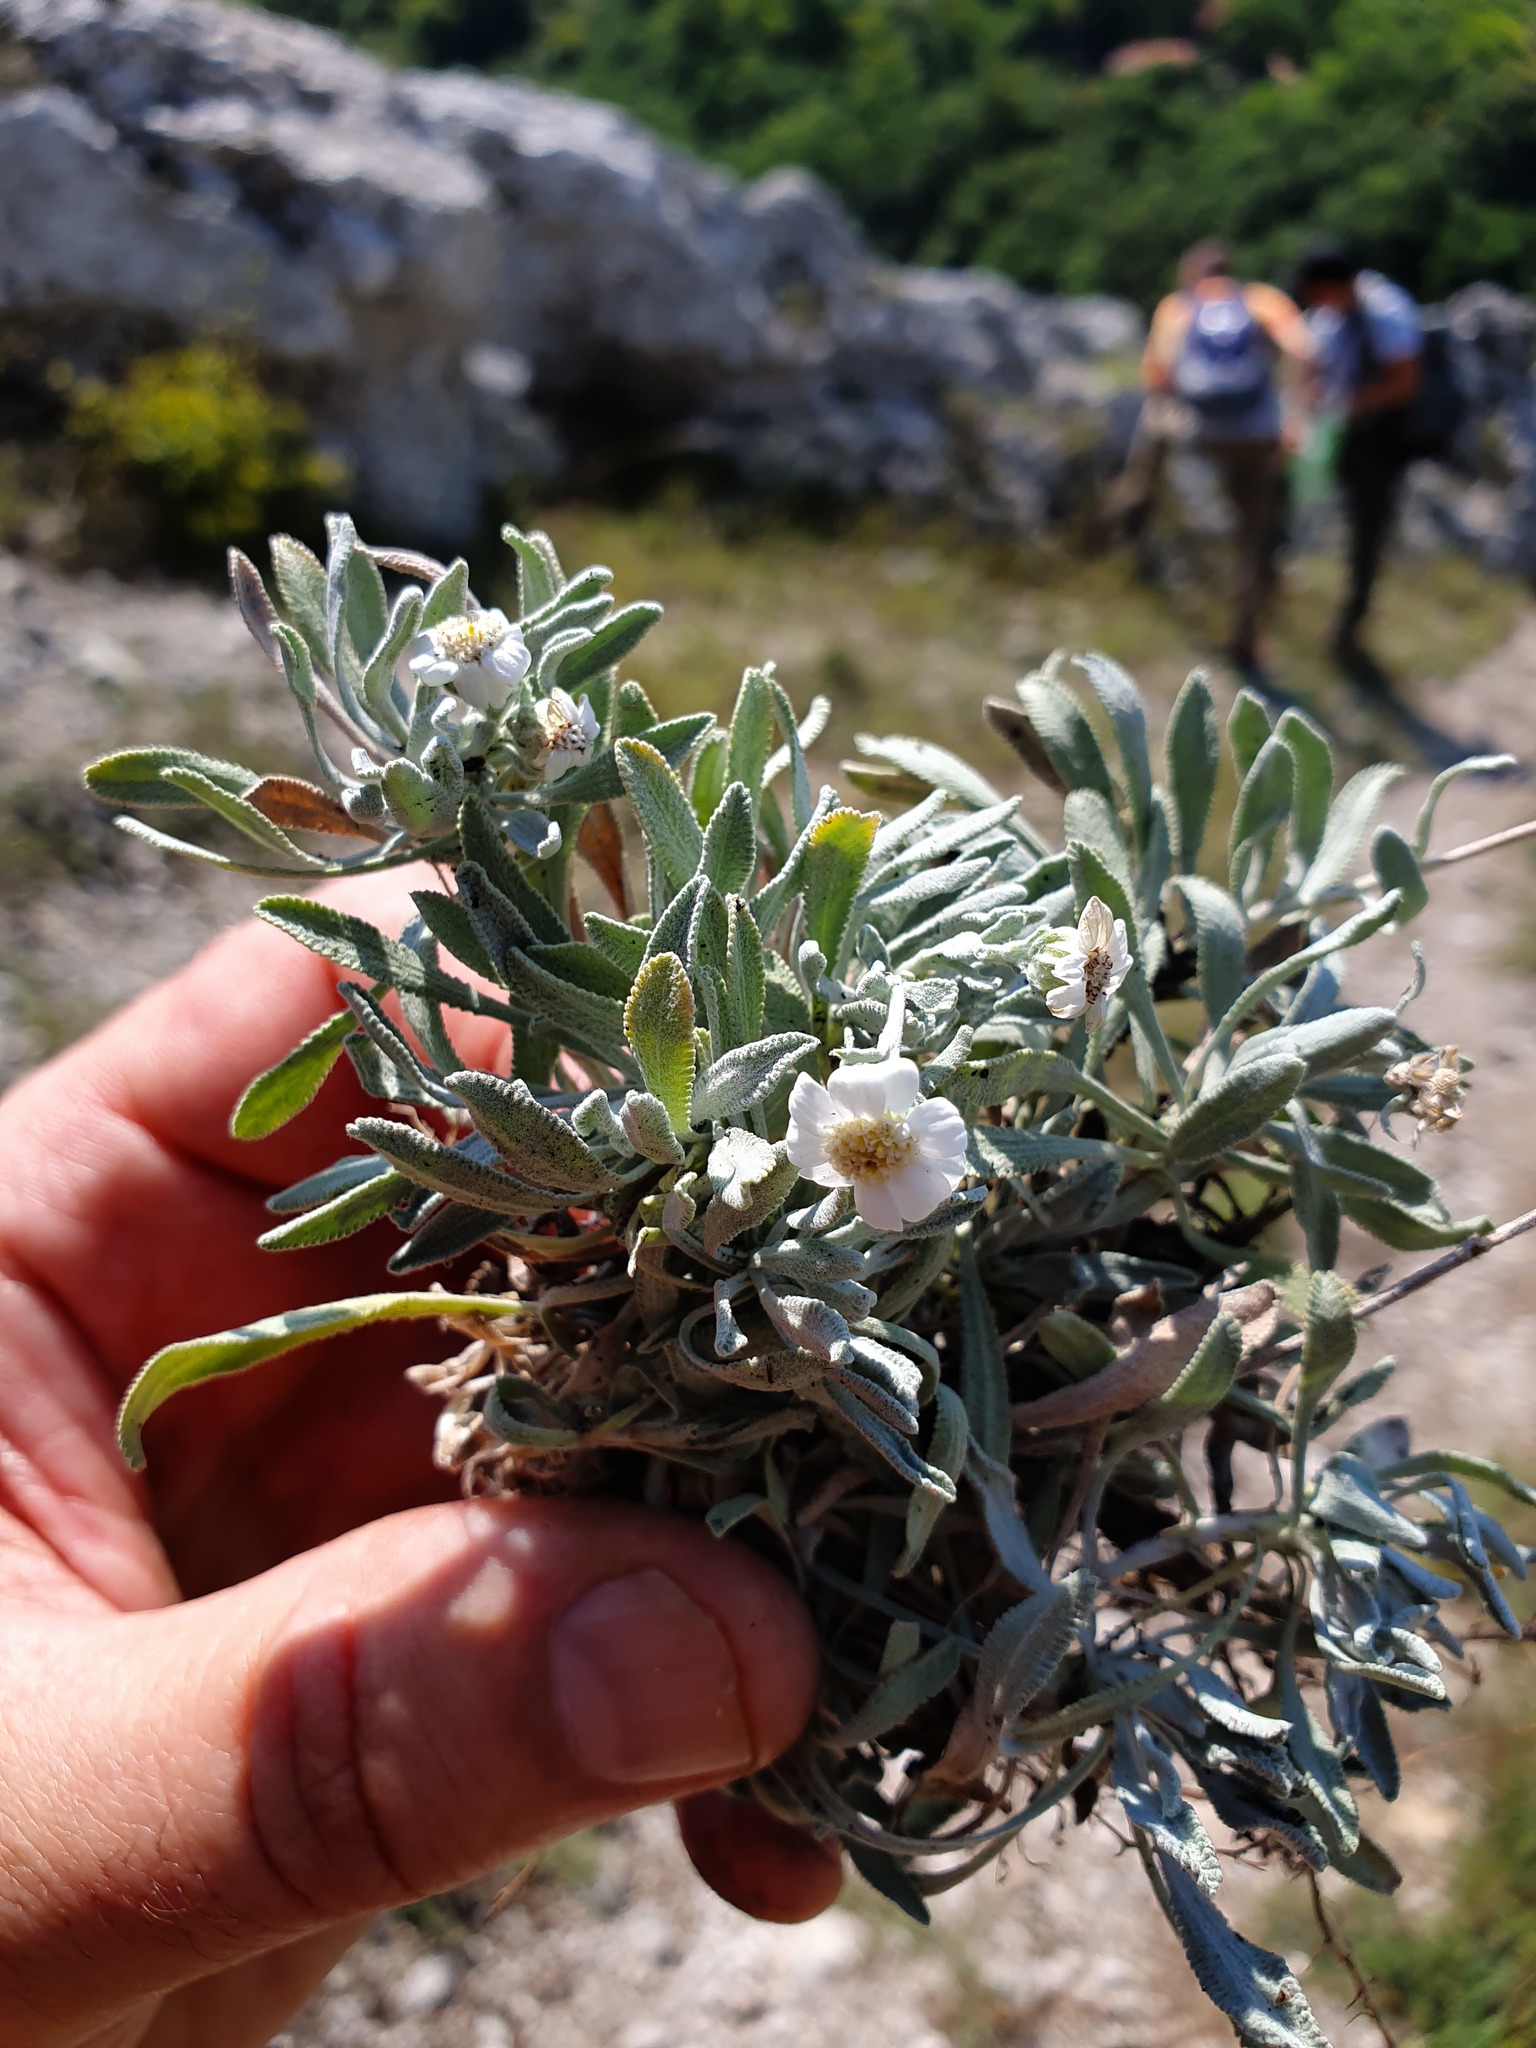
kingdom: Plantae
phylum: Tracheophyta
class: Magnoliopsida
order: Asterales
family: Asteraceae
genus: Achillea
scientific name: Achillea ageratifolia
